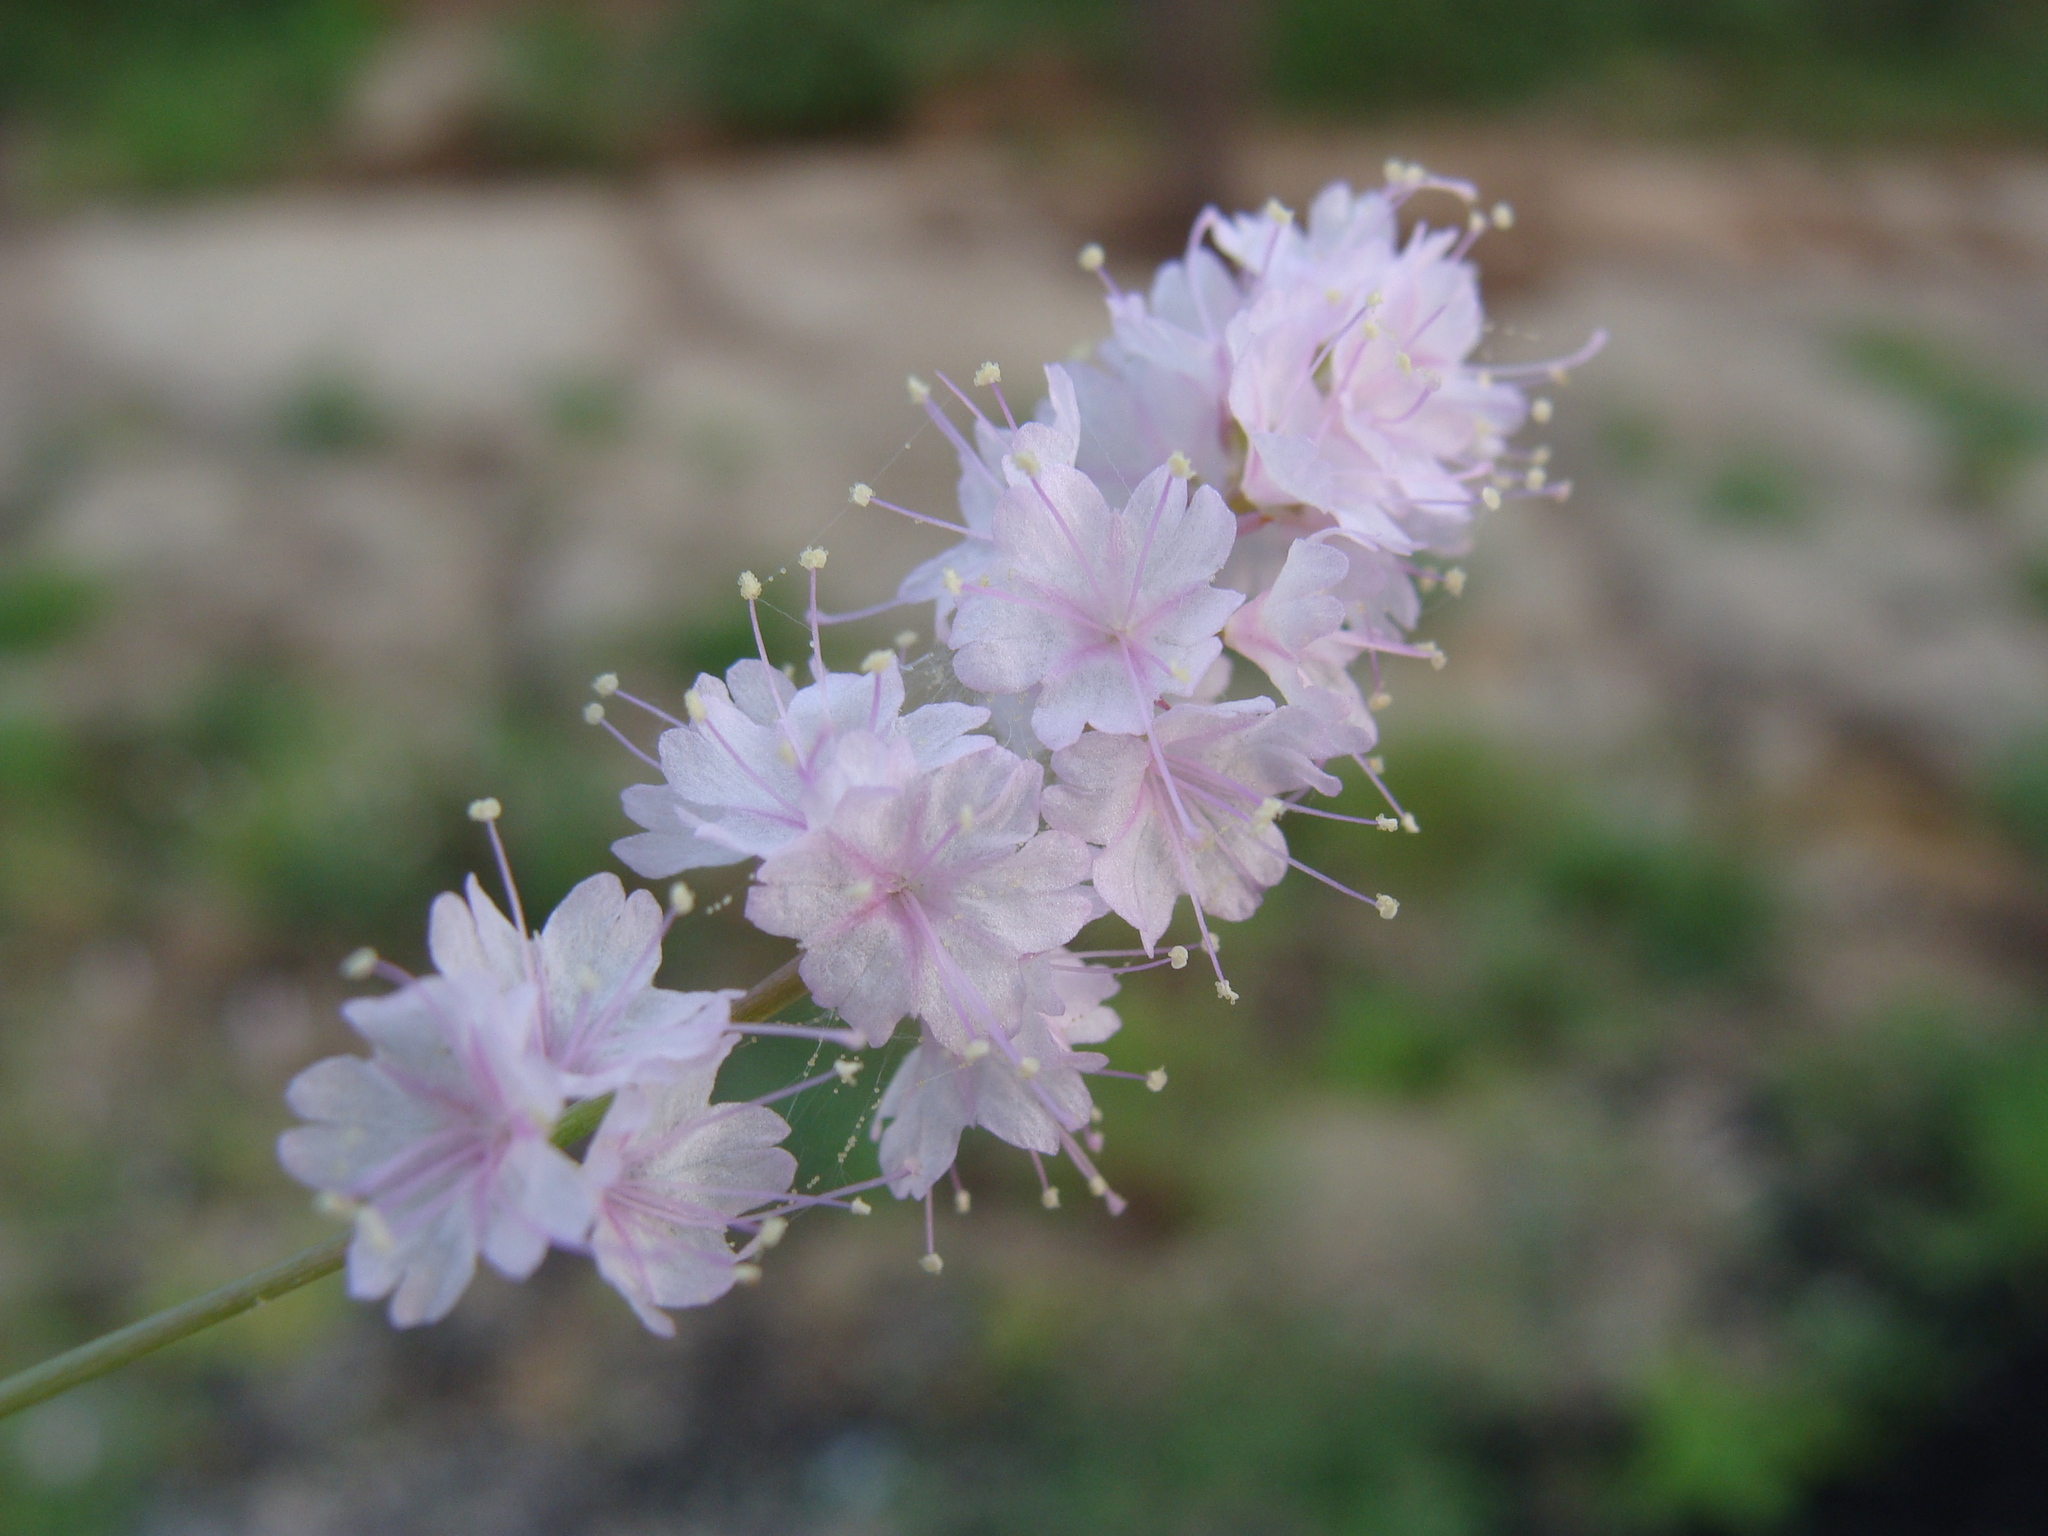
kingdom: Plantae
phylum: Tracheophyta
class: Magnoliopsida
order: Caryophyllales
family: Nyctaginaceae
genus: Boerhavia
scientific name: Boerhavia xantii
